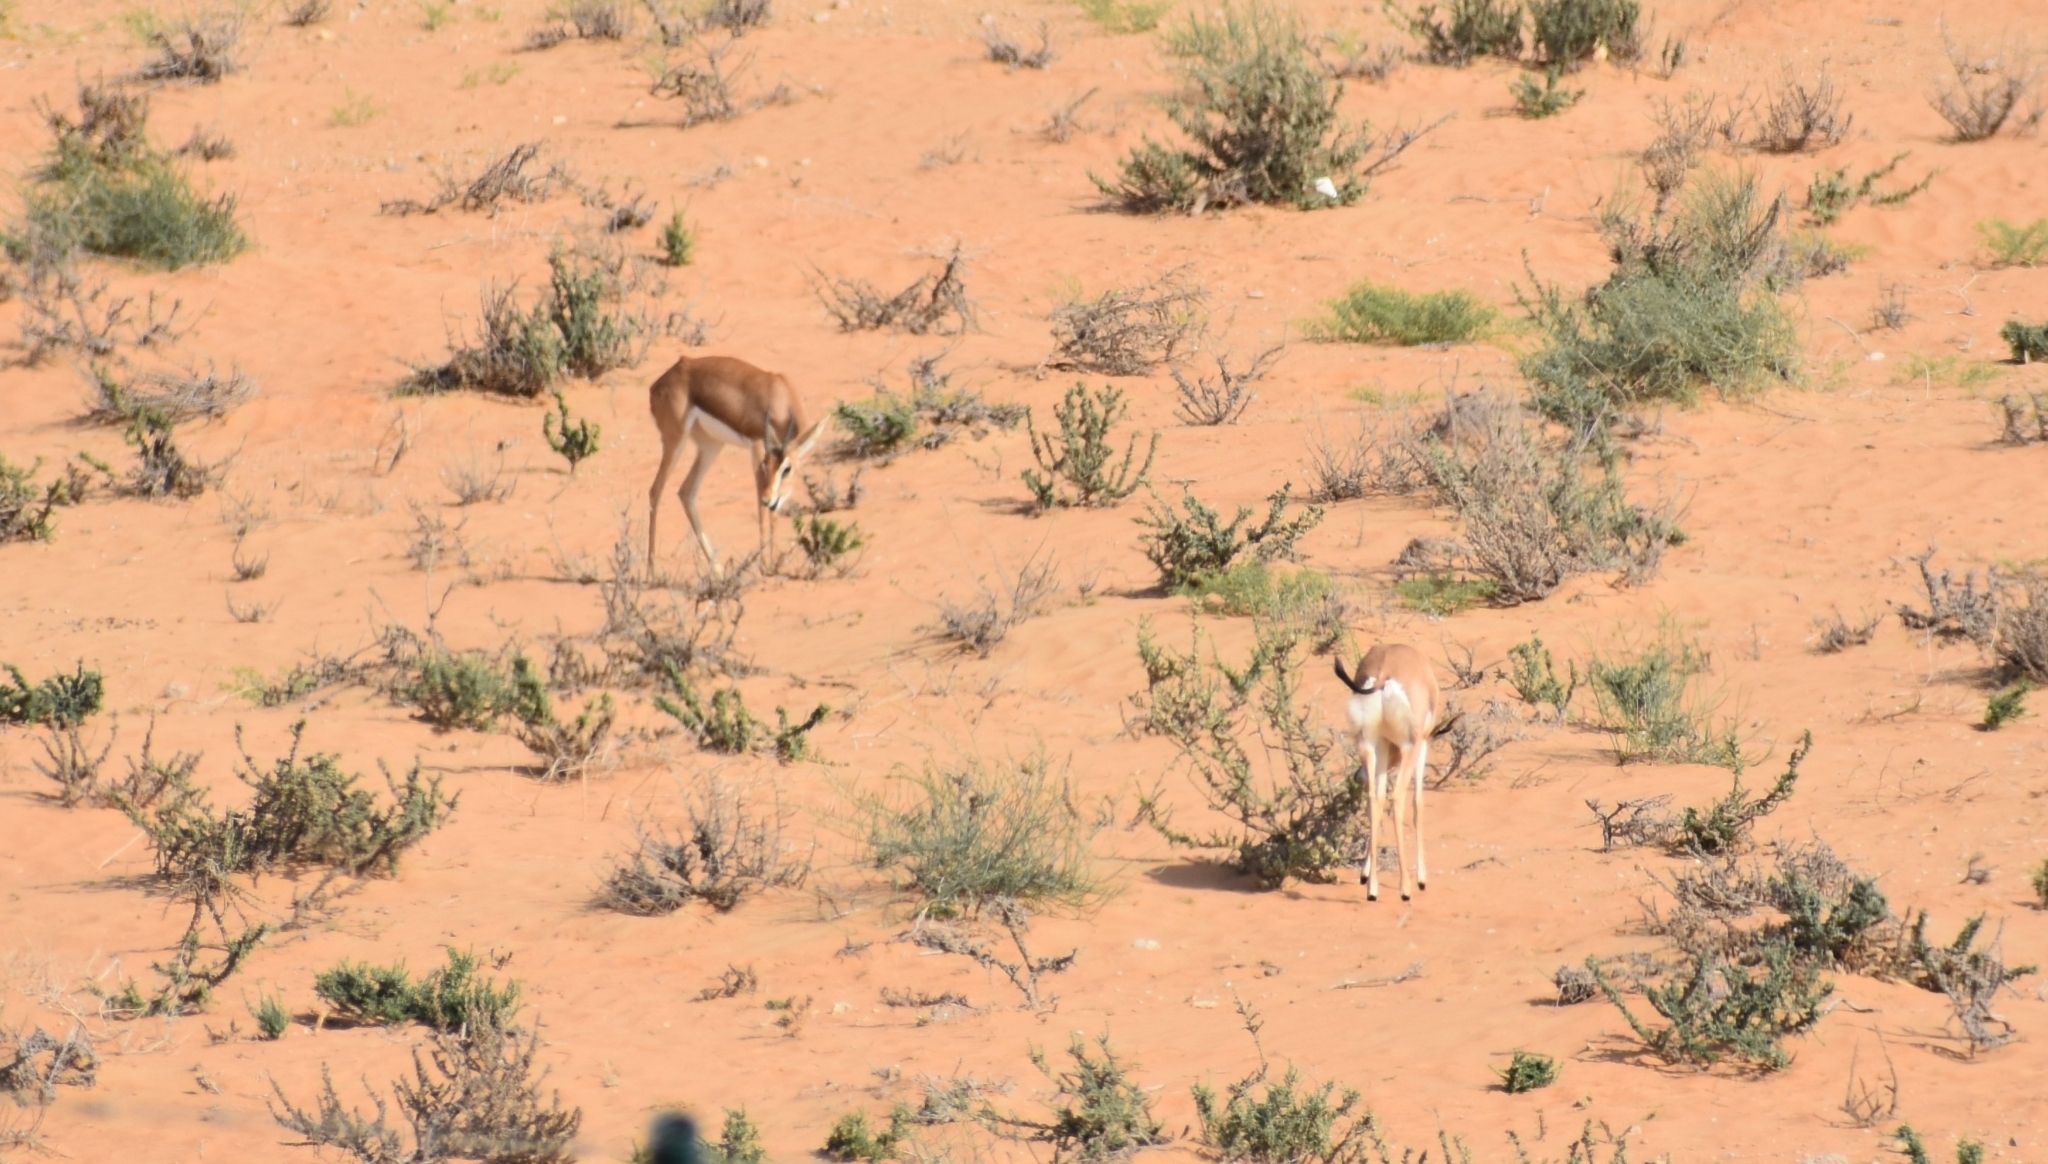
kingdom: Animalia
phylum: Chordata
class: Mammalia
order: Artiodactyla
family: Bovidae
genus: Gazella
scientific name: Gazella arabica
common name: Arabian gazelle
